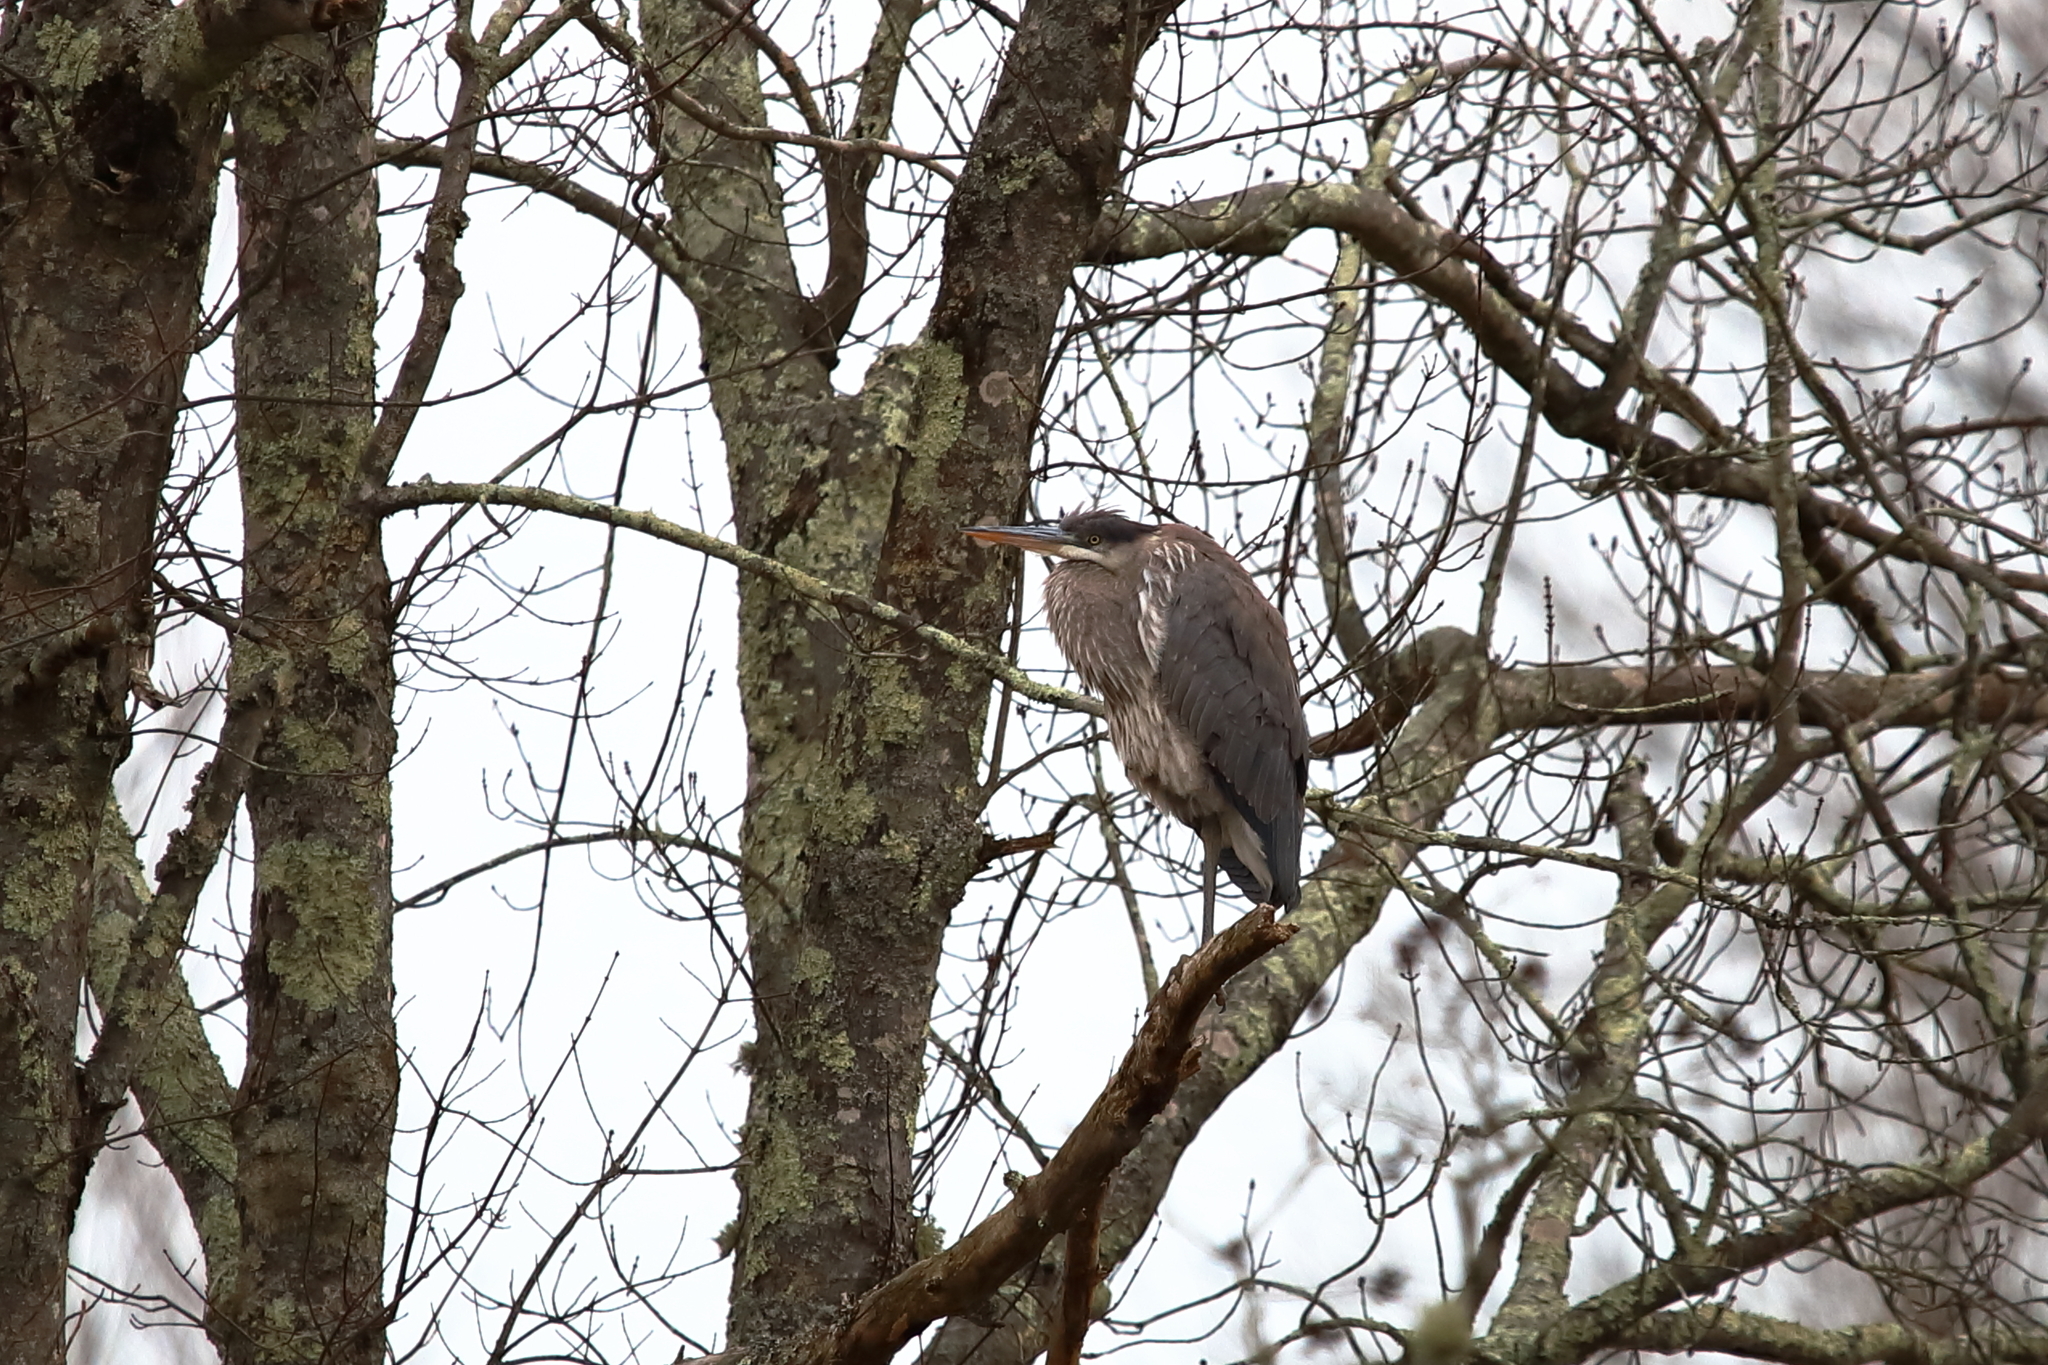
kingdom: Animalia
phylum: Chordata
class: Aves
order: Pelecaniformes
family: Ardeidae
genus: Ardea
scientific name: Ardea herodias
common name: Great blue heron
